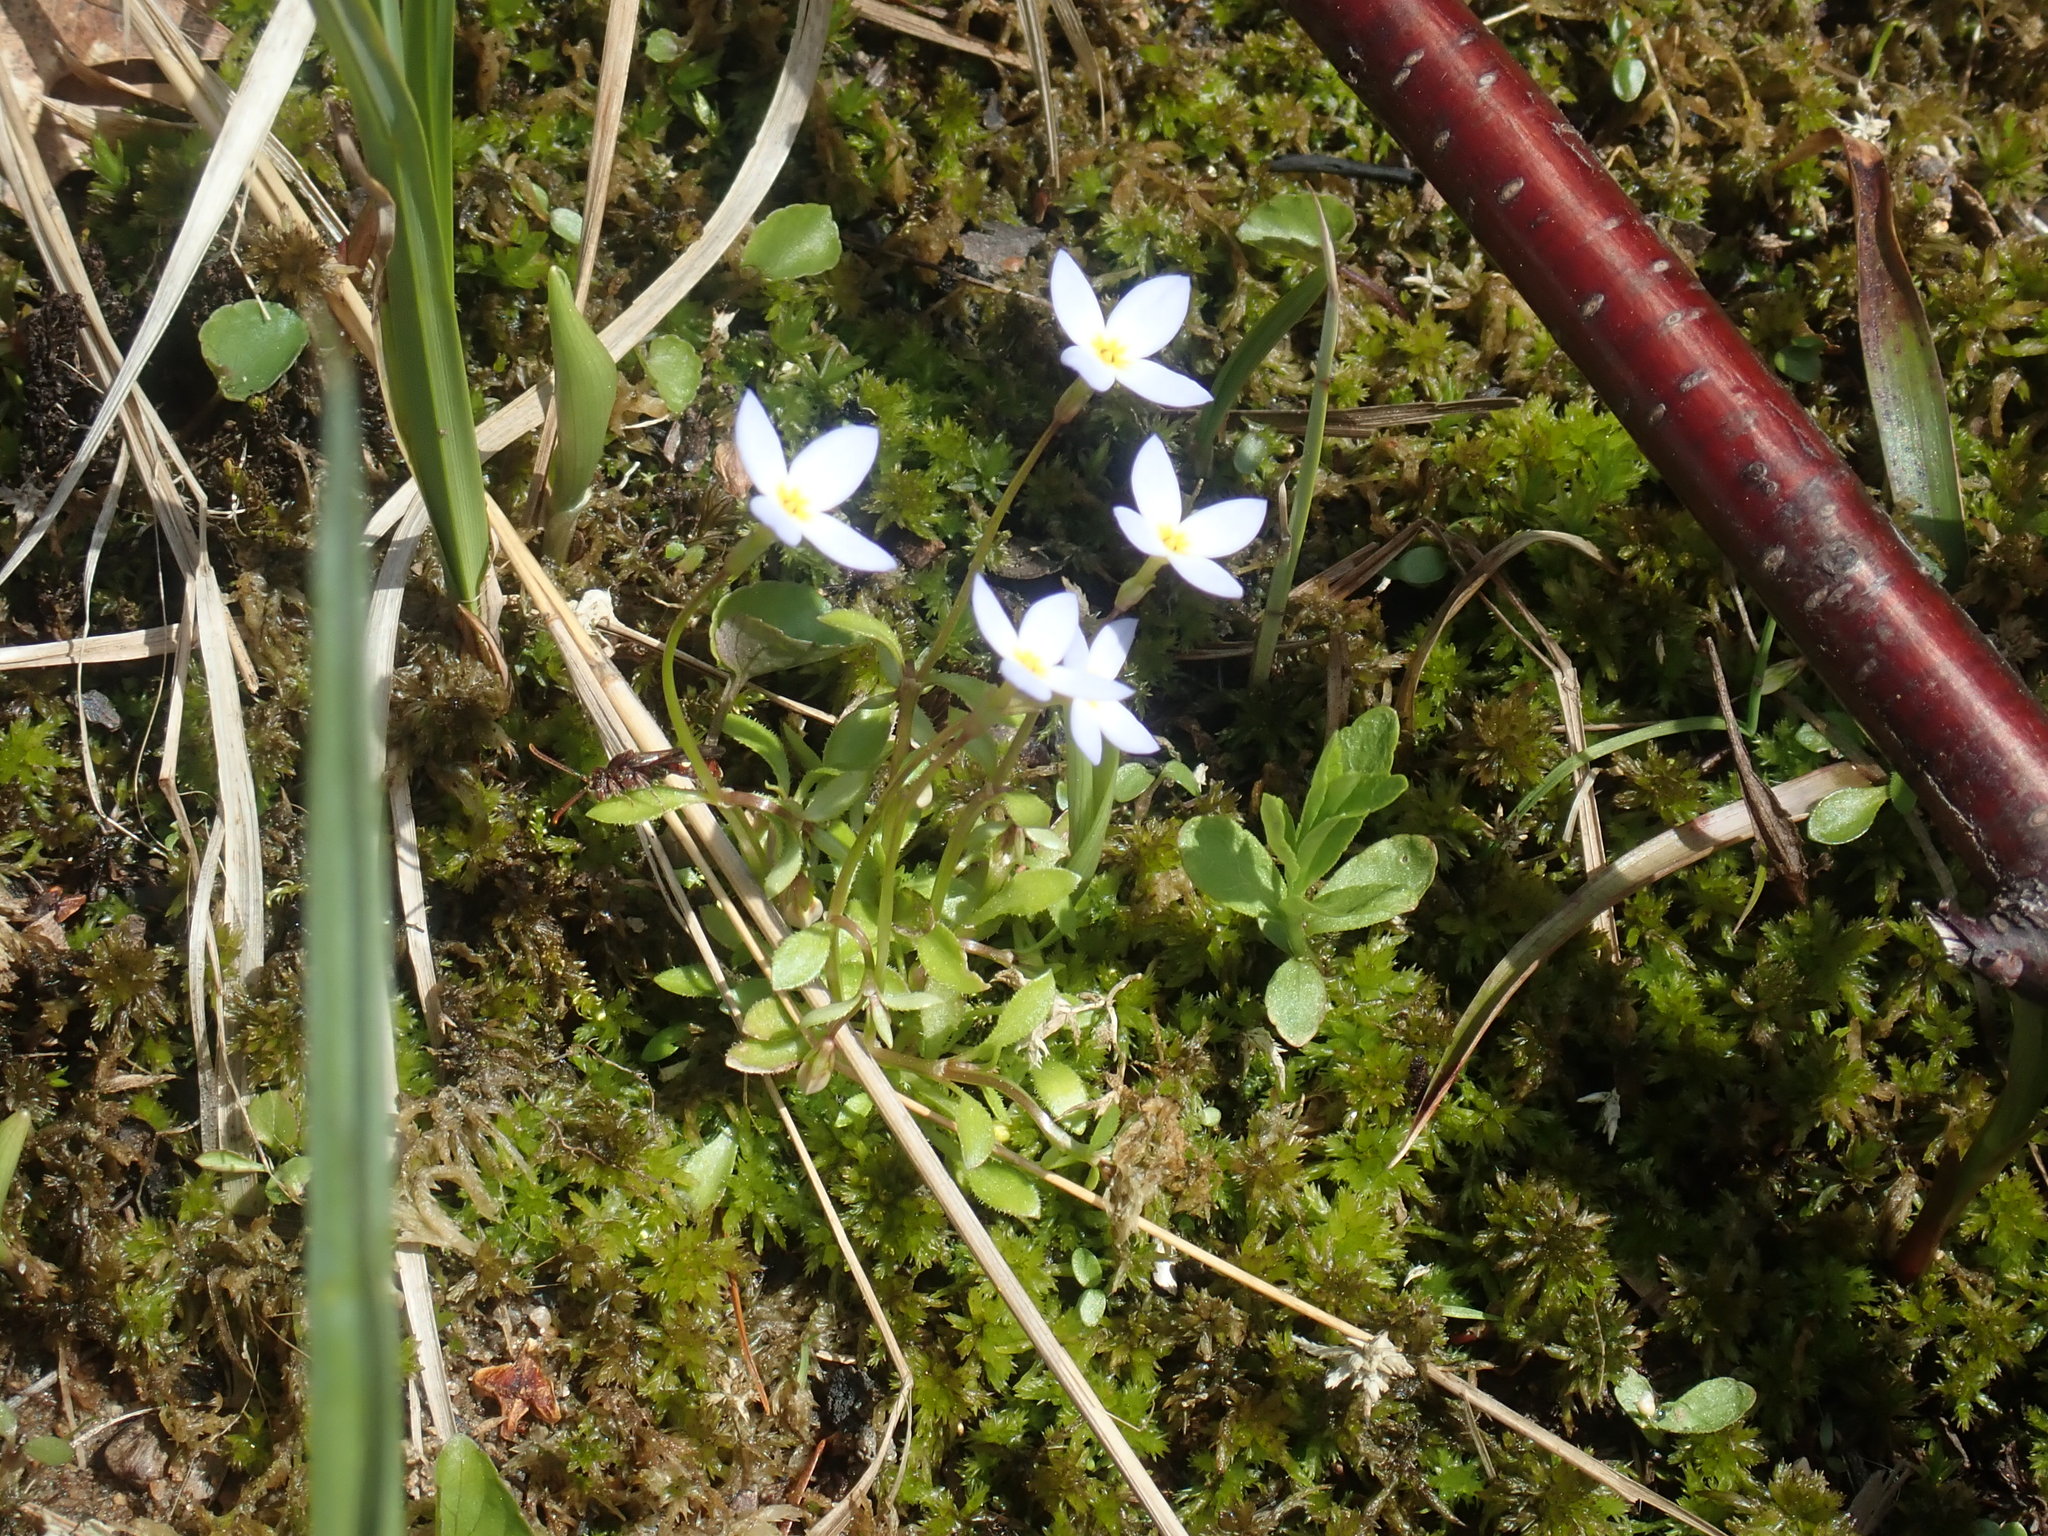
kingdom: Plantae
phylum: Tracheophyta
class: Magnoliopsida
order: Gentianales
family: Rubiaceae
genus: Houstonia
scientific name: Houstonia caerulea
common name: Bluets
